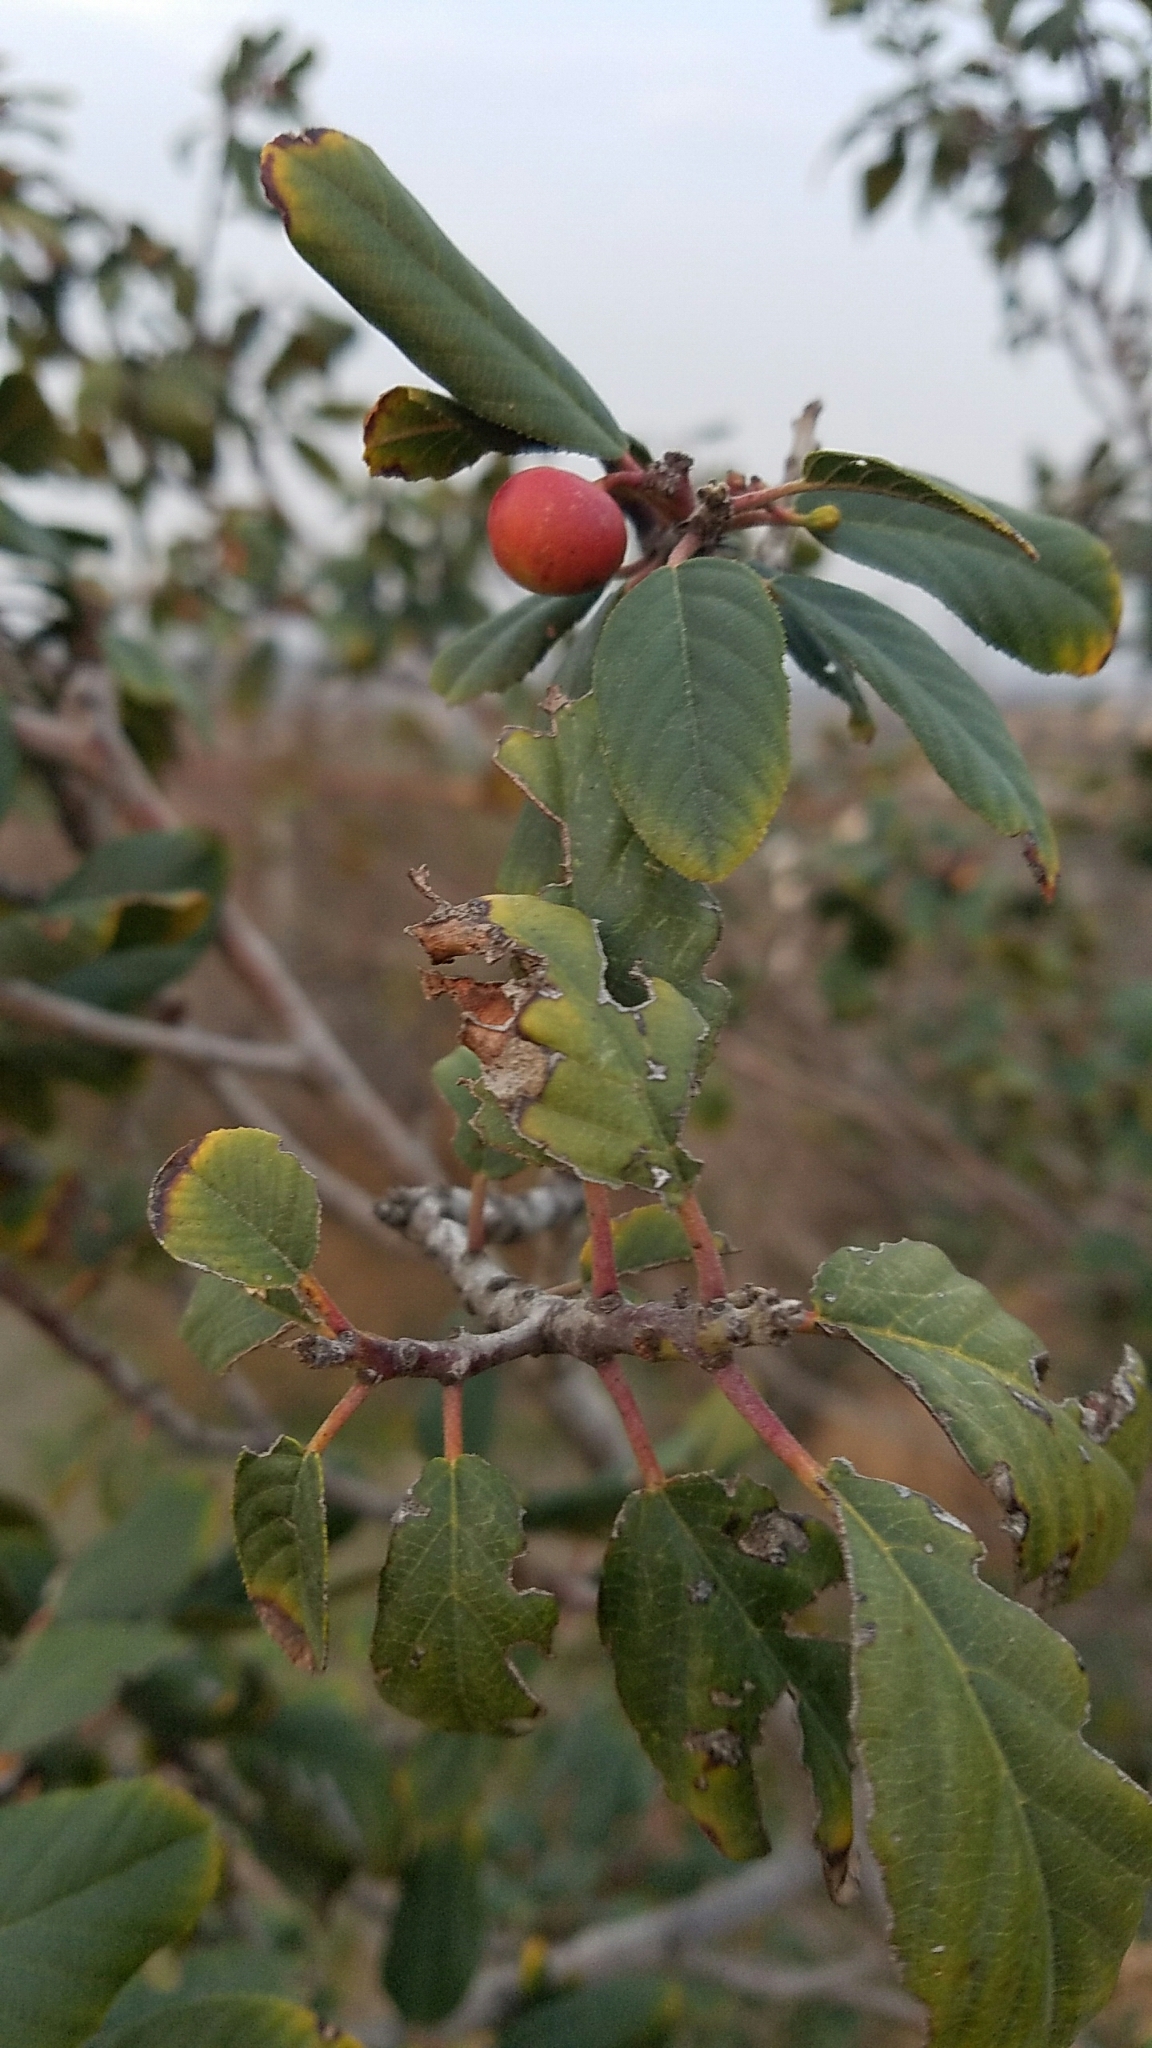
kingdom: Plantae
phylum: Tracheophyta
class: Magnoliopsida
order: Rosales
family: Rhamnaceae
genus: Frangula
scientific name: Frangula californica
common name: California buckthorn
